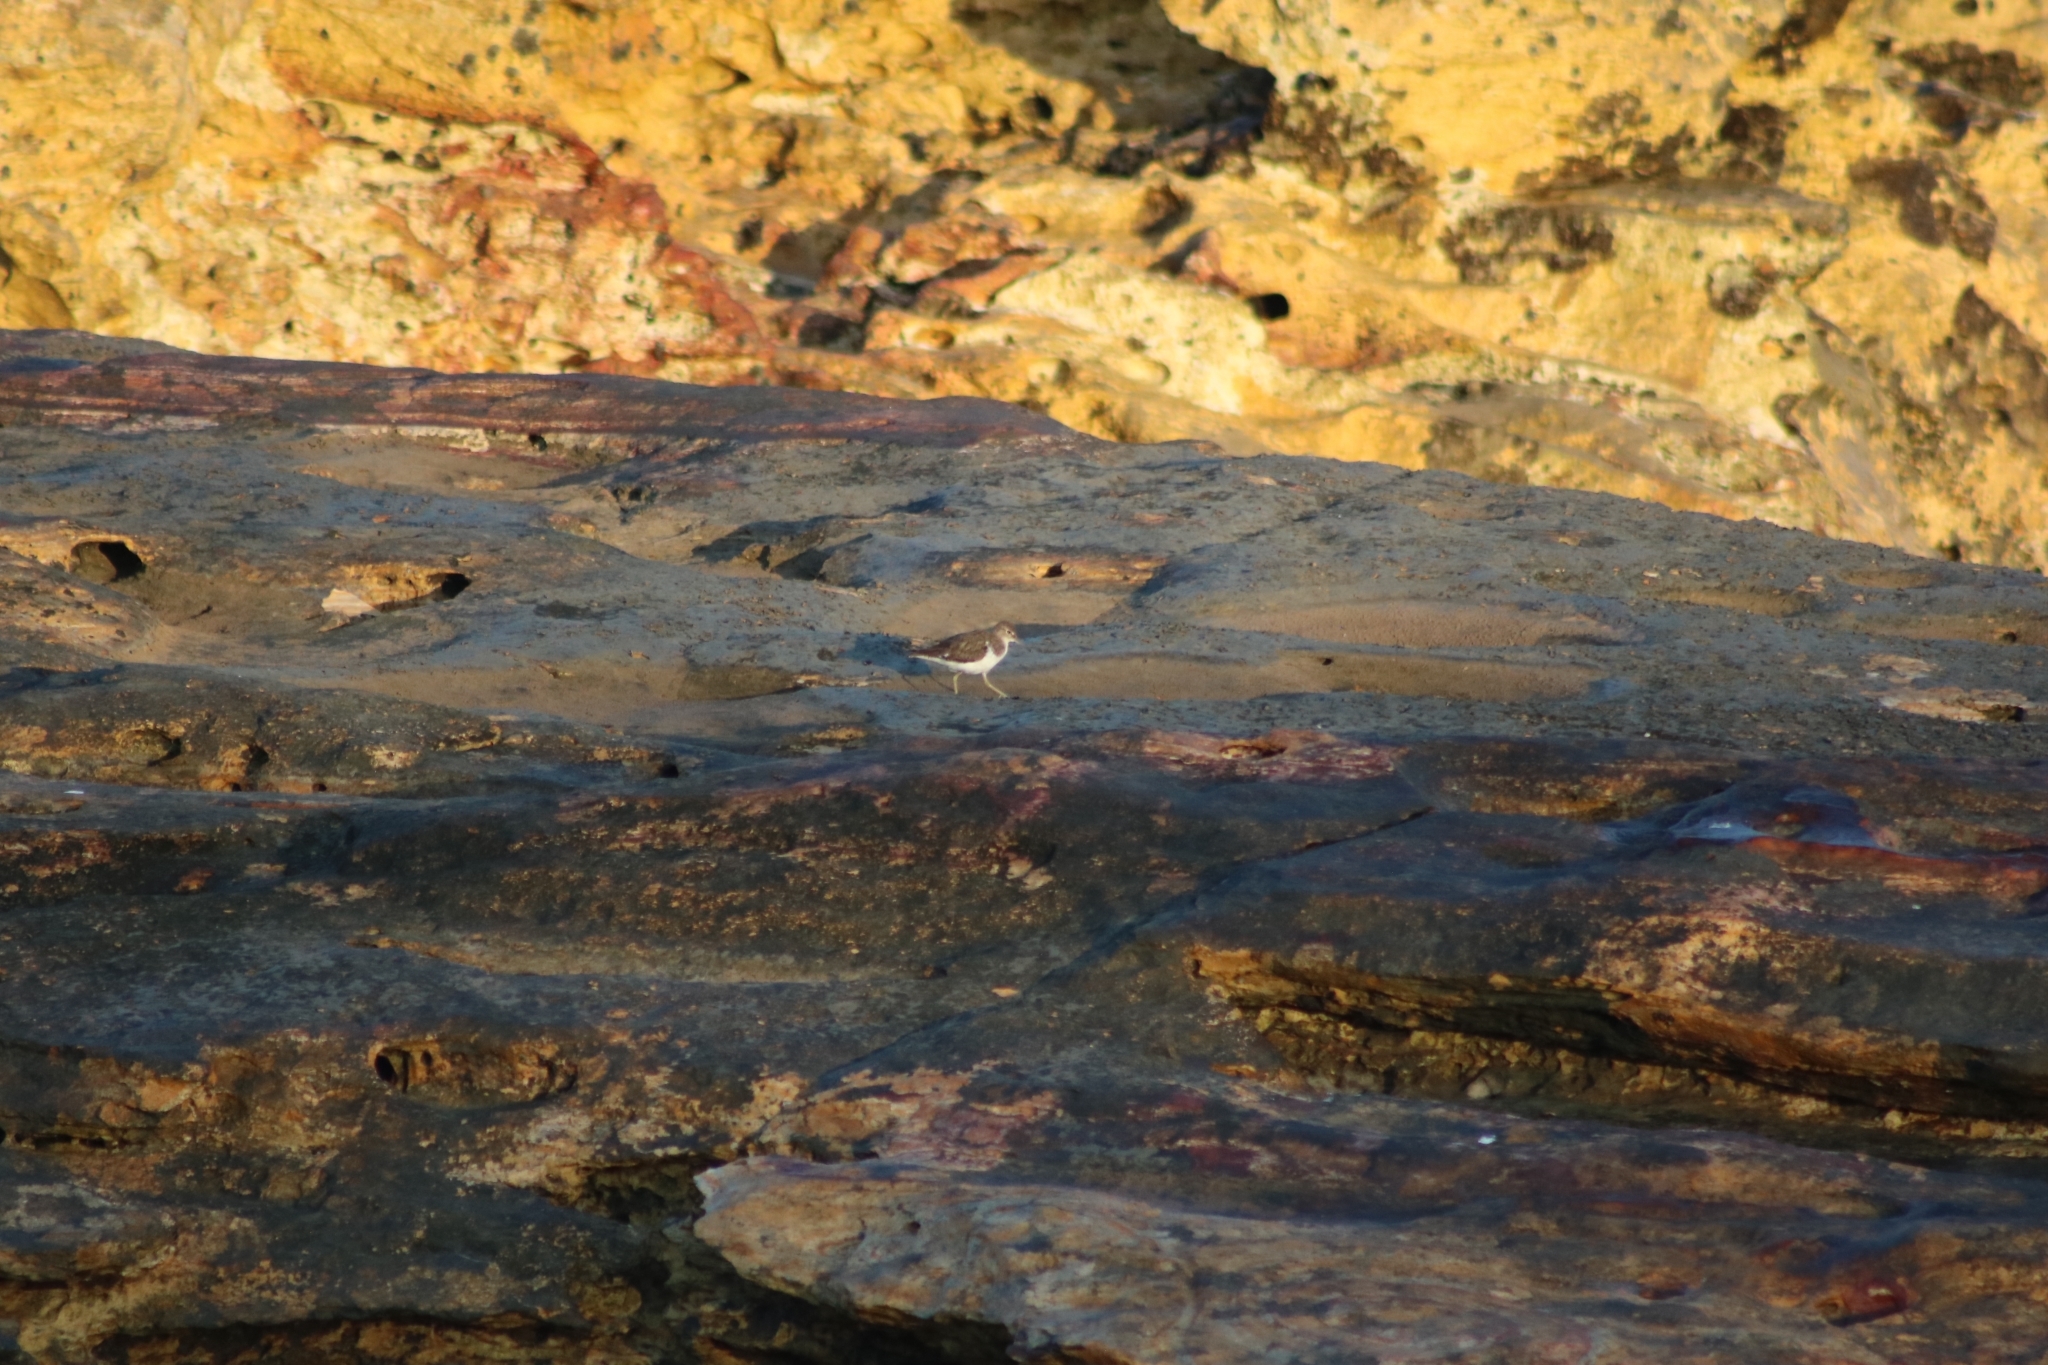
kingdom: Animalia
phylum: Chordata
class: Aves
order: Charadriiformes
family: Scolopacidae
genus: Actitis
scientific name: Actitis hypoleucos
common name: Common sandpiper
